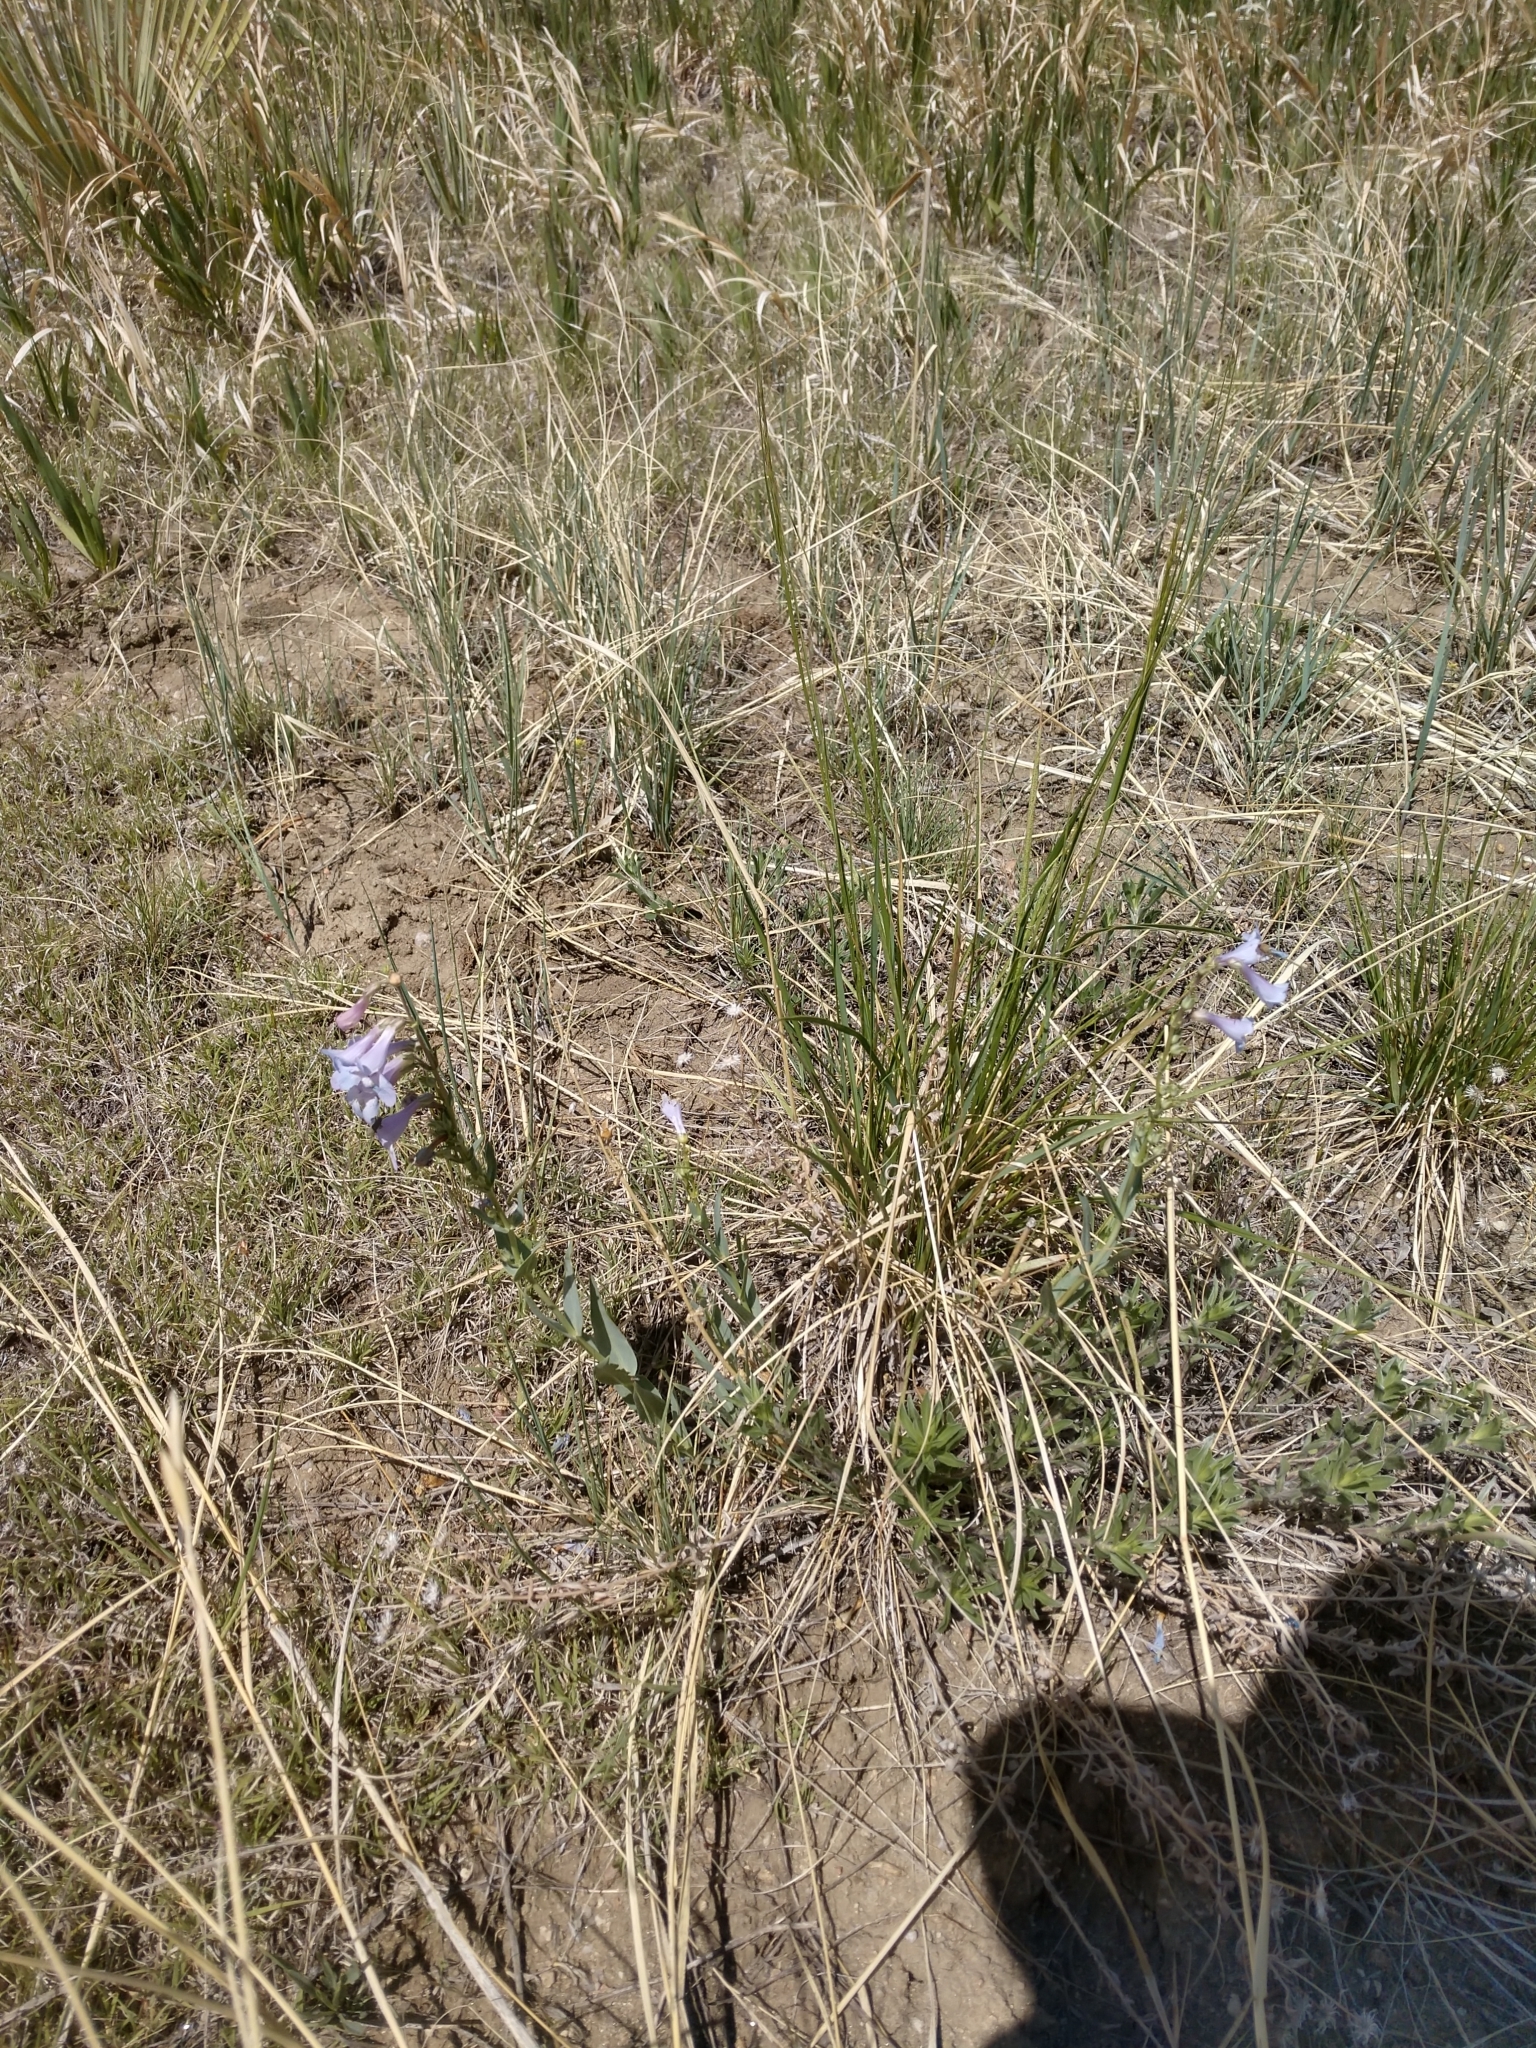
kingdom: Plantae
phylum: Tracheophyta
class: Magnoliopsida
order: Lamiales
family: Plantaginaceae
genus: Penstemon
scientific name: Penstemon secundiflorus
